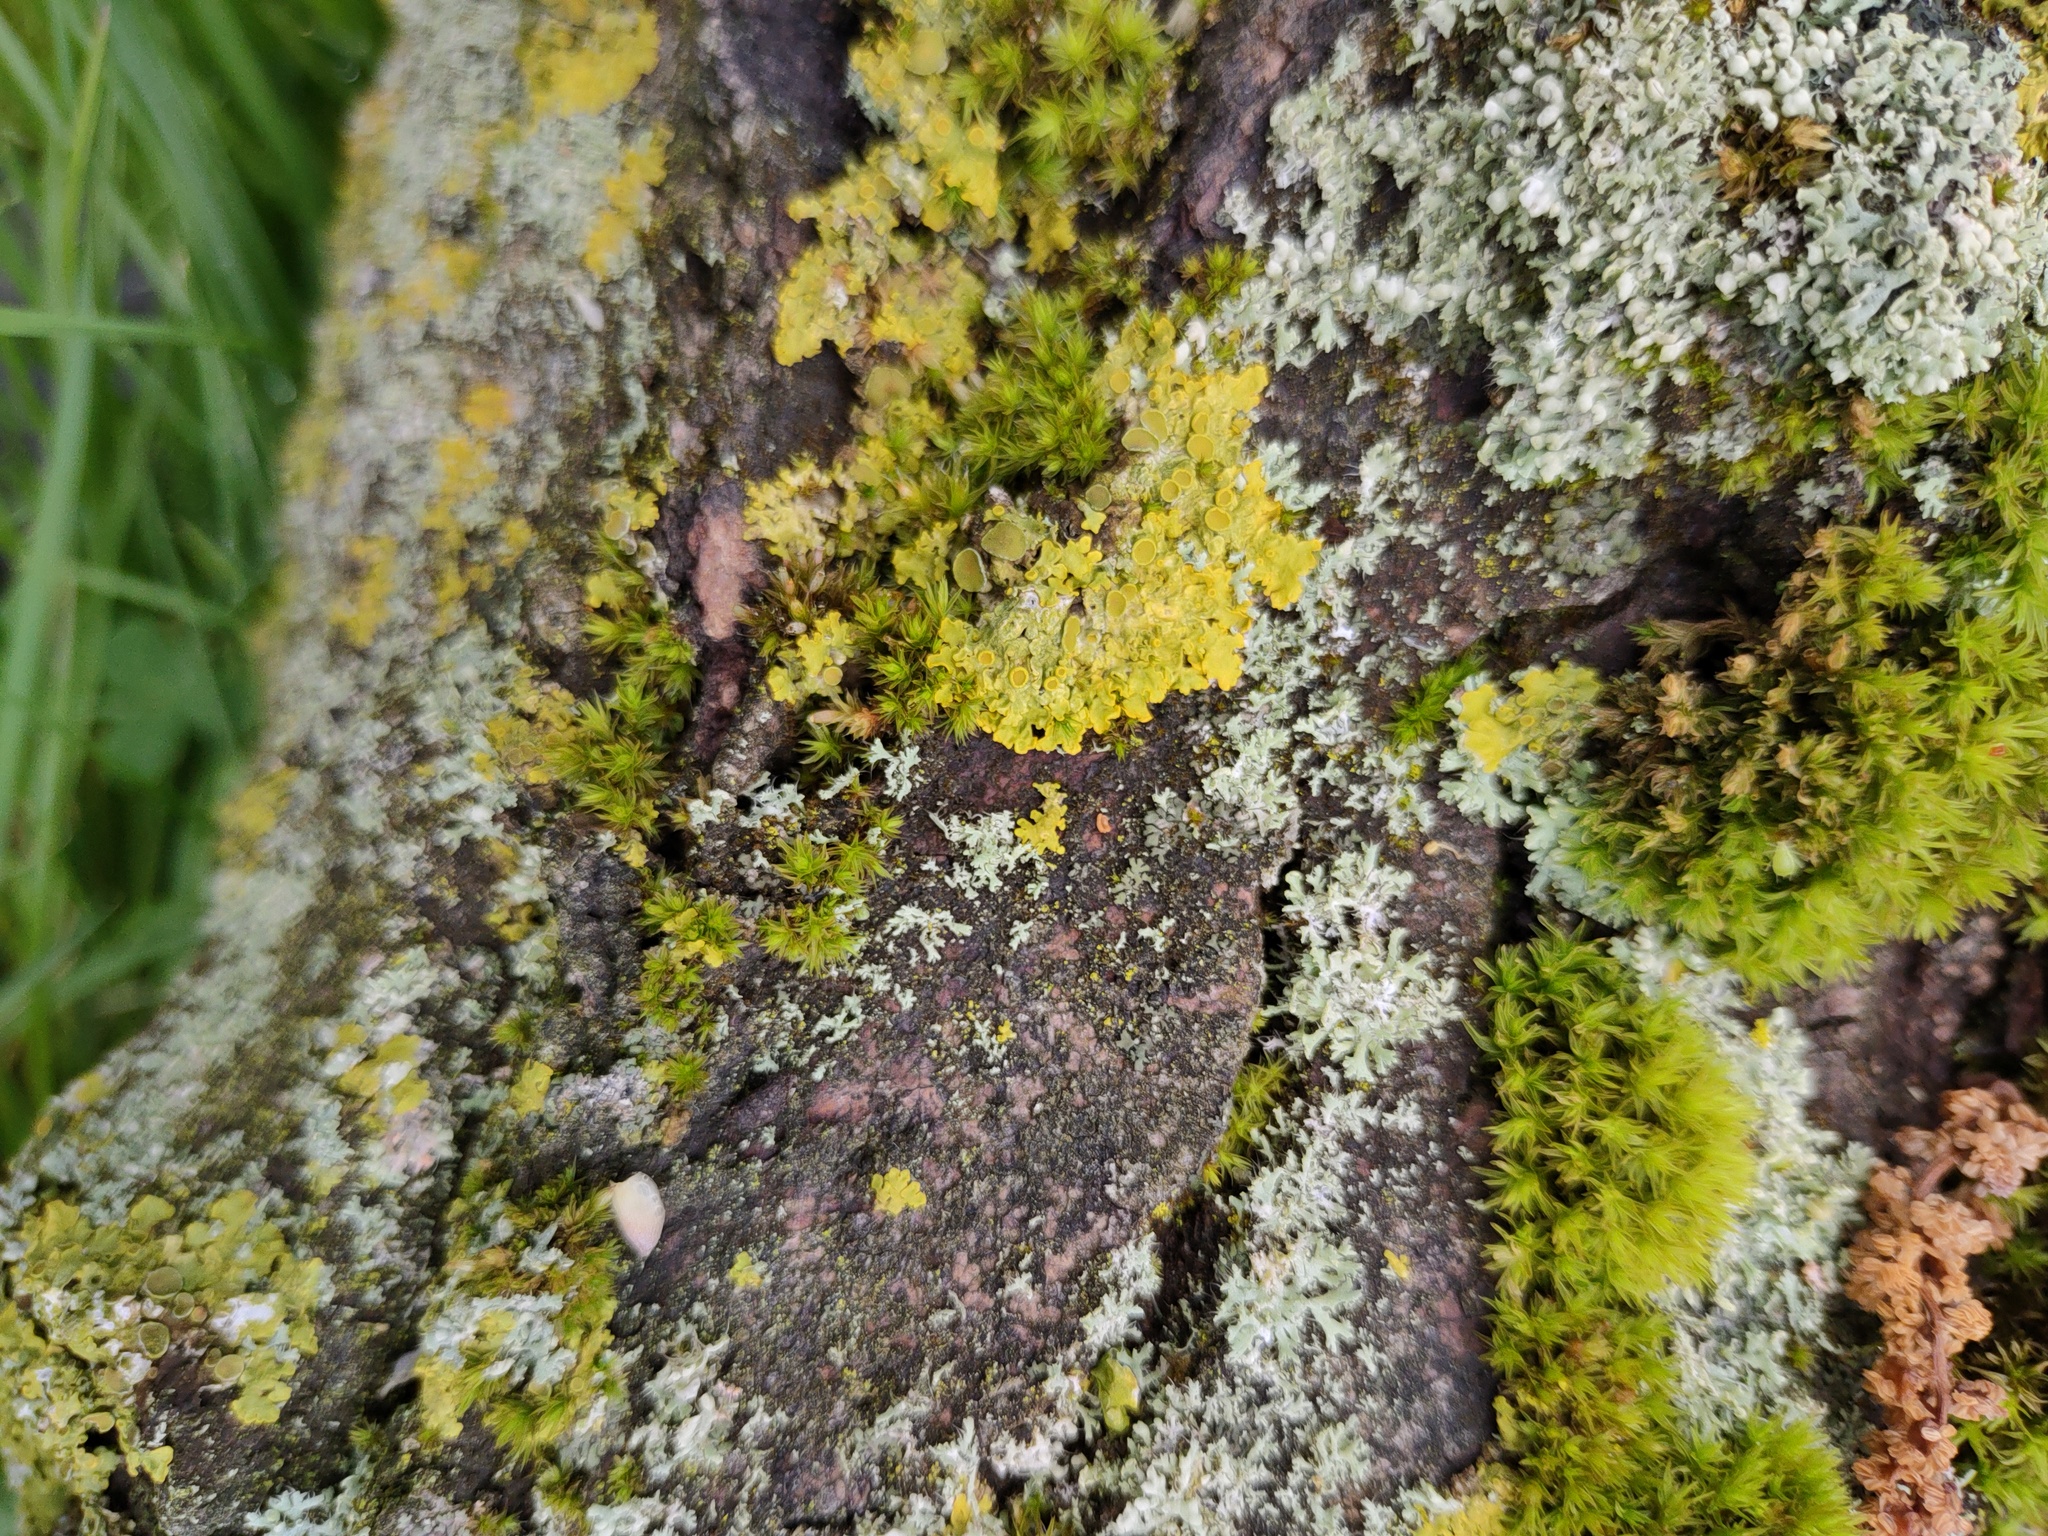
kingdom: Fungi
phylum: Ascomycota
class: Lecanoromycetes
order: Teloschistales
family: Teloschistaceae
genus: Xanthoria
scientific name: Xanthoria parietina
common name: Common orange lichen
